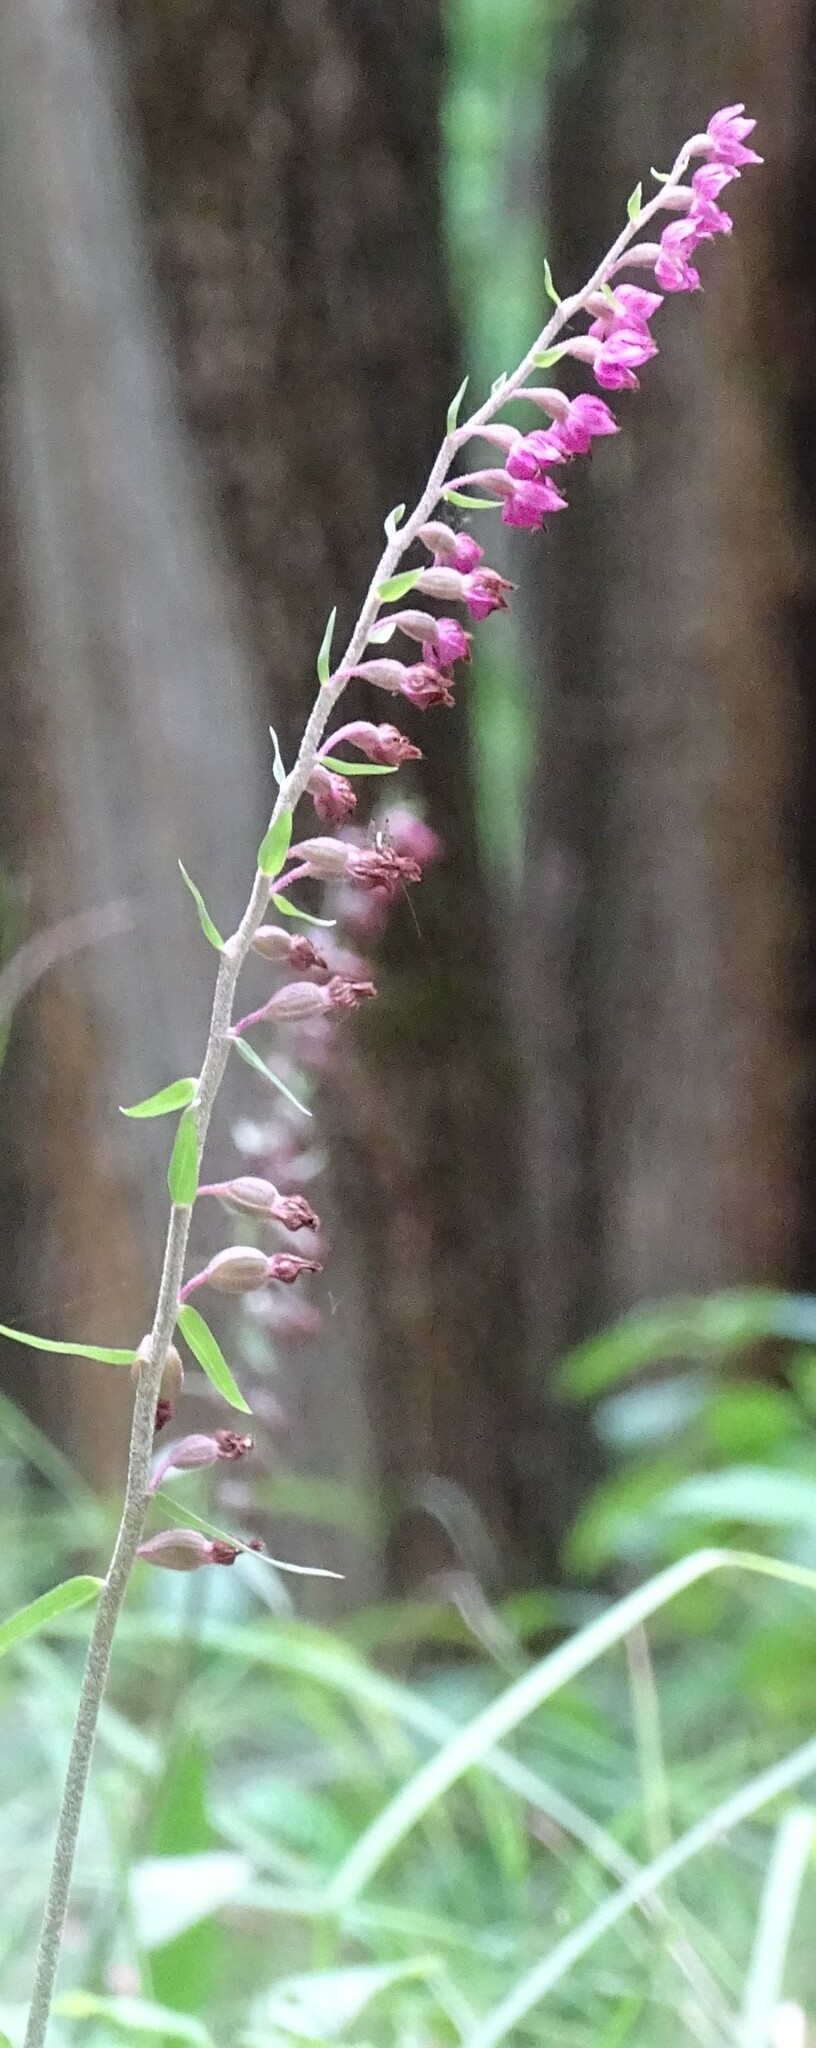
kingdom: Plantae
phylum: Tracheophyta
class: Liliopsida
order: Asparagales
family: Orchidaceae
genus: Epipactis
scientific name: Epipactis atrorubens
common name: Dark-red helleborine
